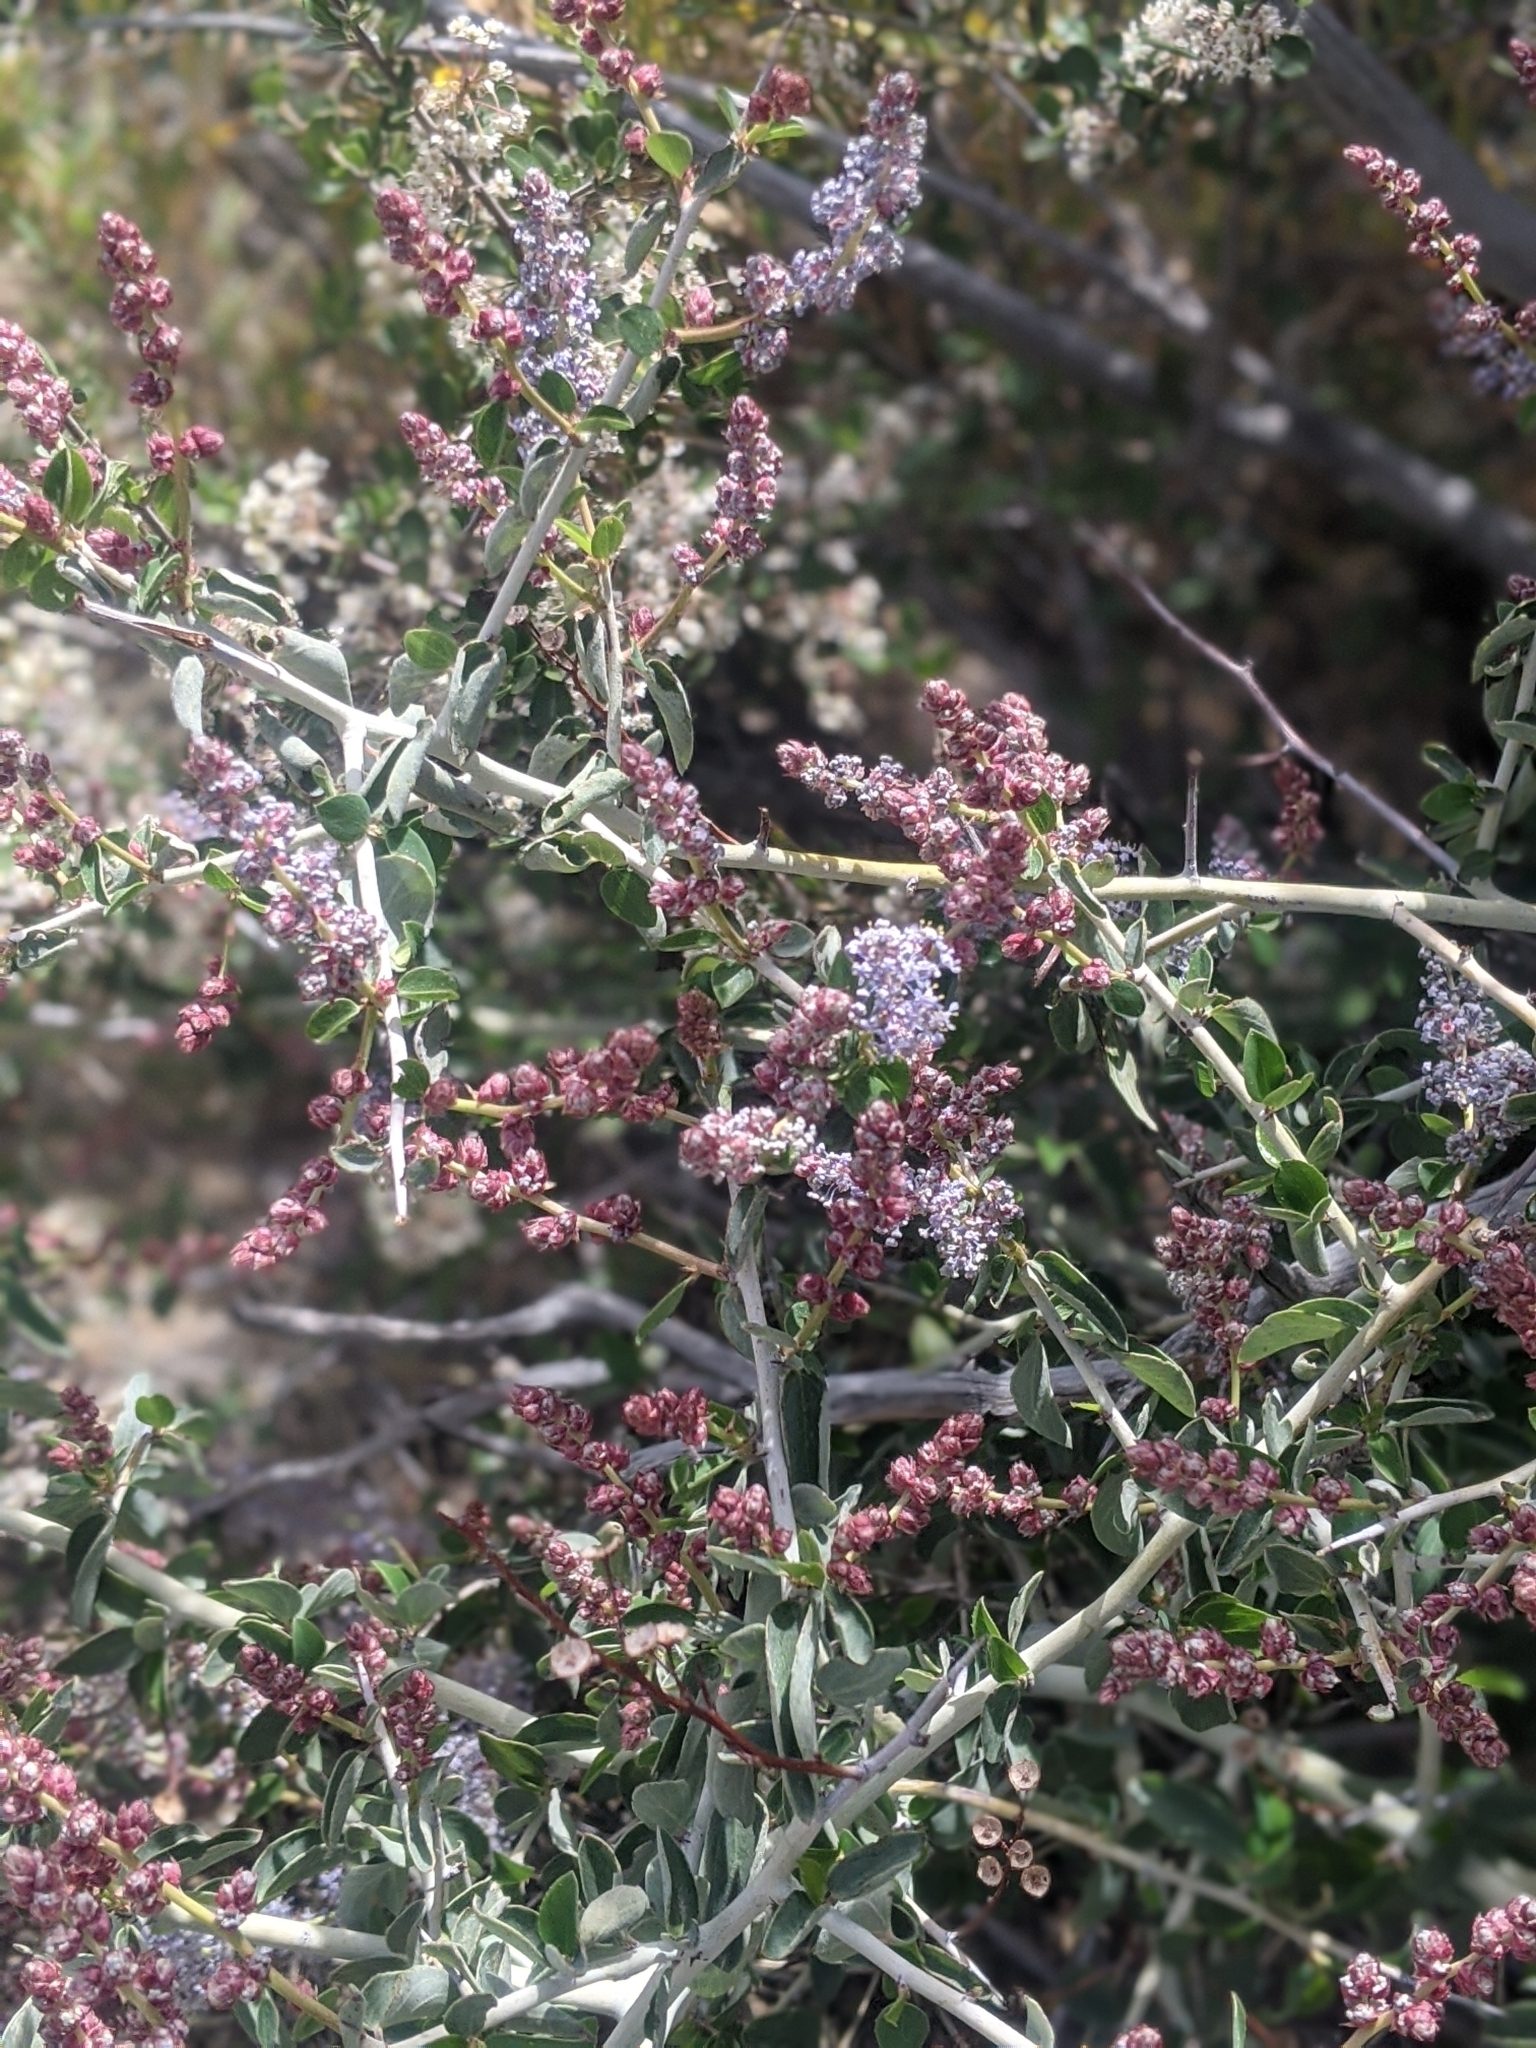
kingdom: Plantae
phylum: Tracheophyta
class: Magnoliopsida
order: Rosales
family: Rhamnaceae
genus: Ceanothus
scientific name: Ceanothus leucodermis
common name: Chaparral whitethorn
